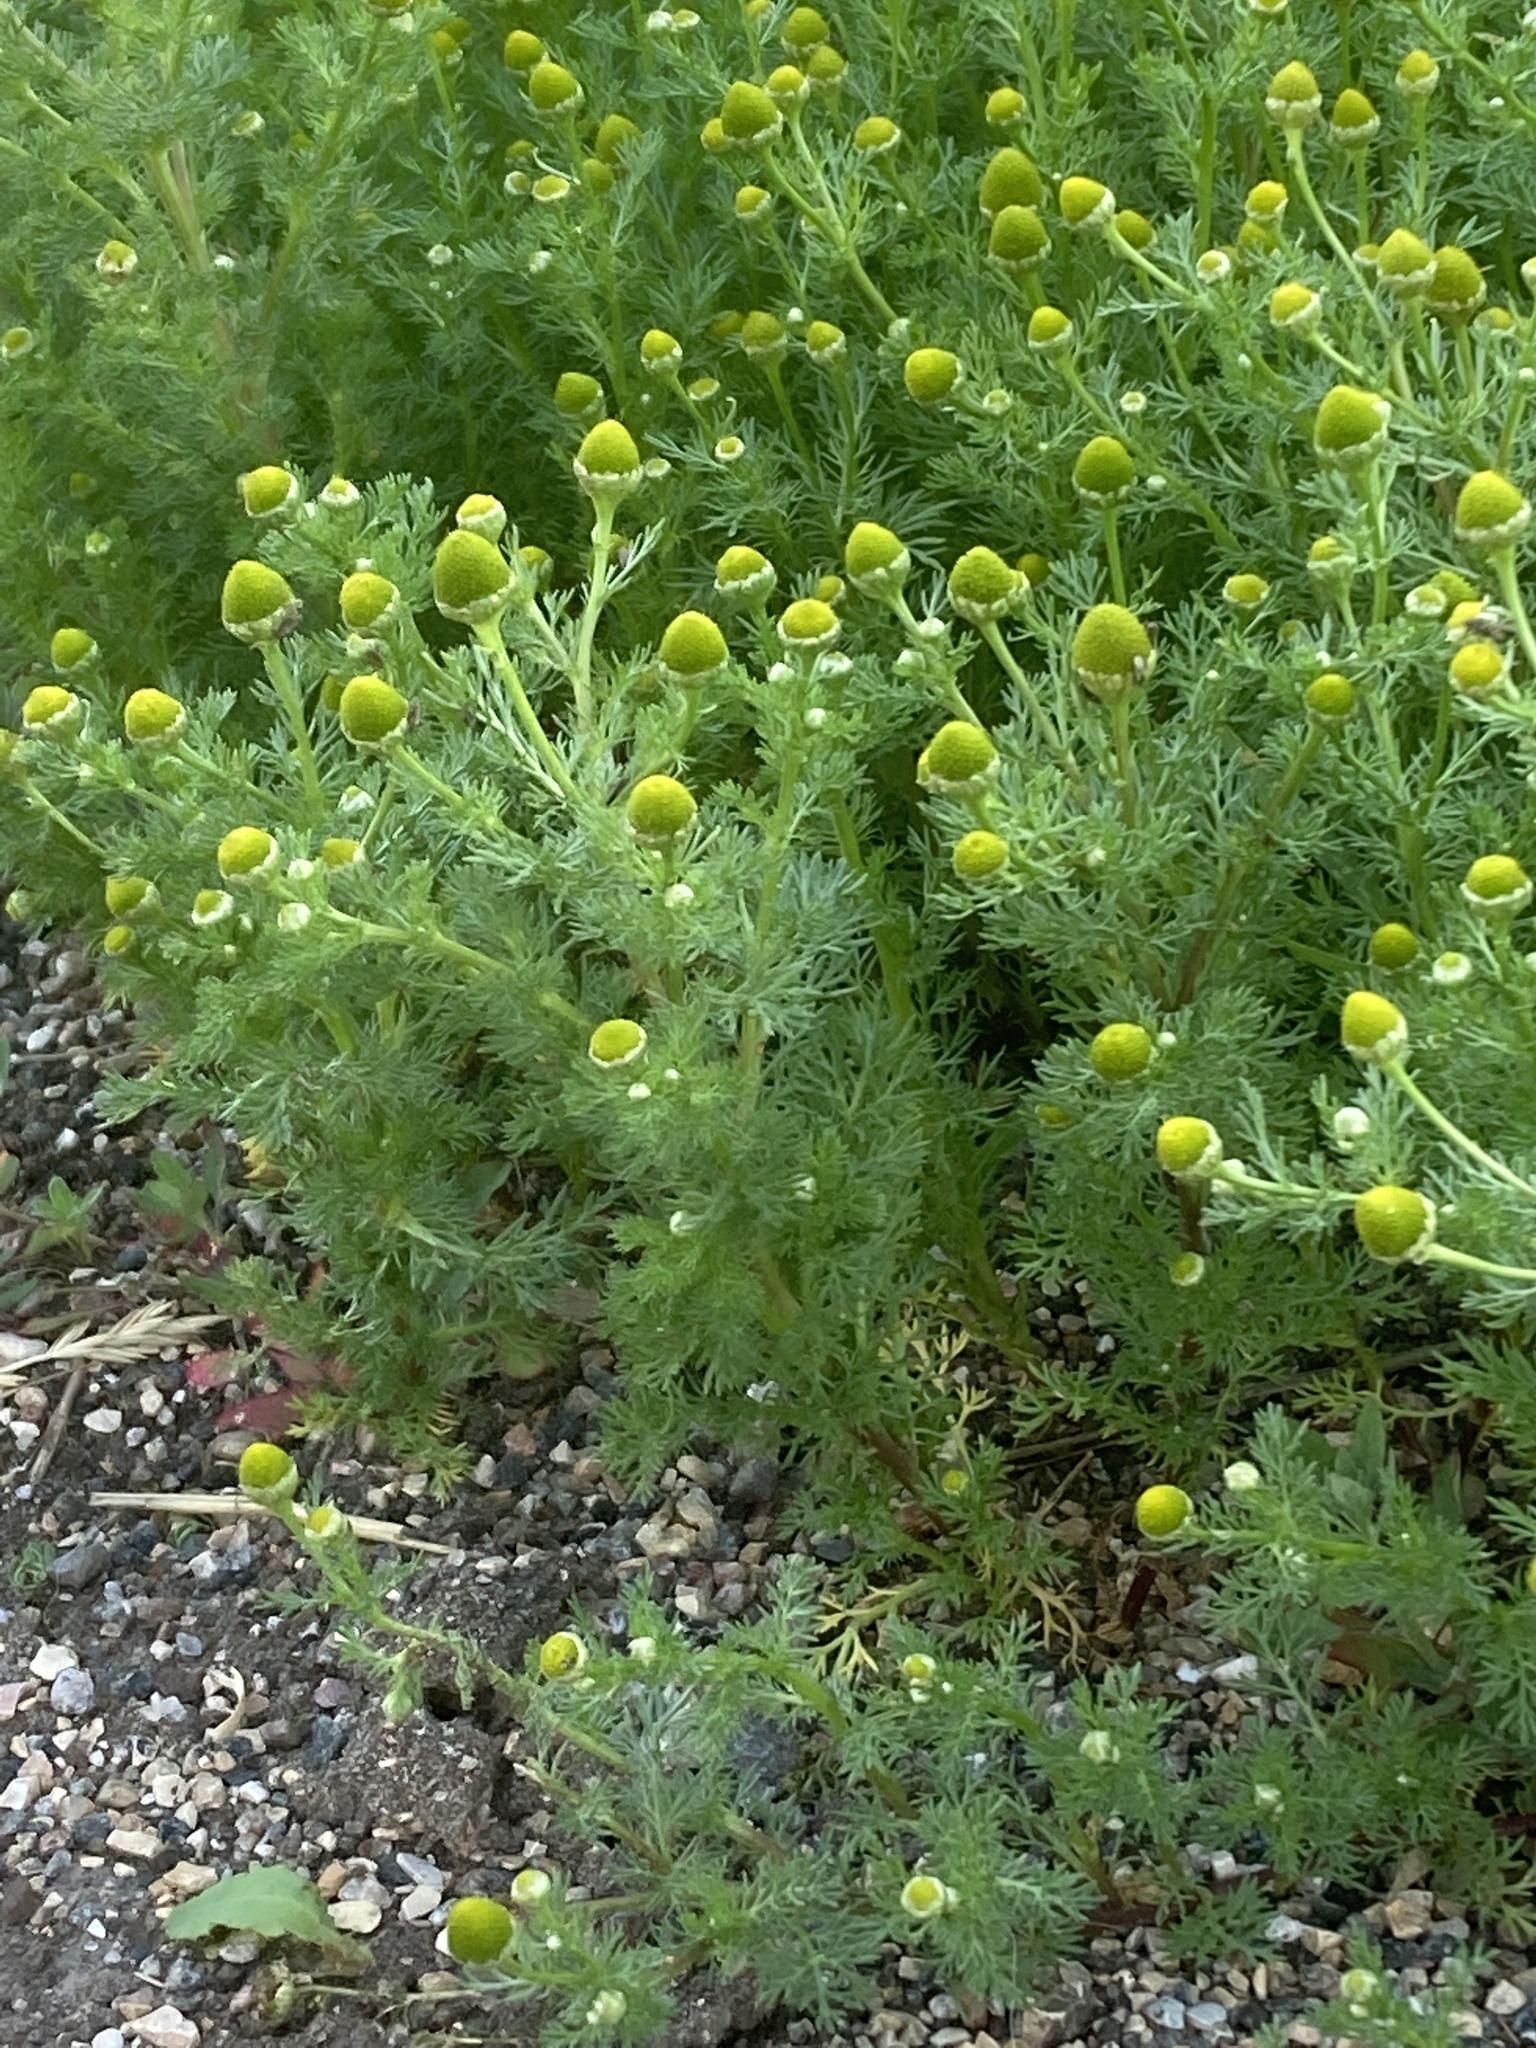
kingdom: Plantae
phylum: Tracheophyta
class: Magnoliopsida
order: Asterales
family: Asteraceae
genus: Matricaria
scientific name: Matricaria discoidea
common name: Disc mayweed
